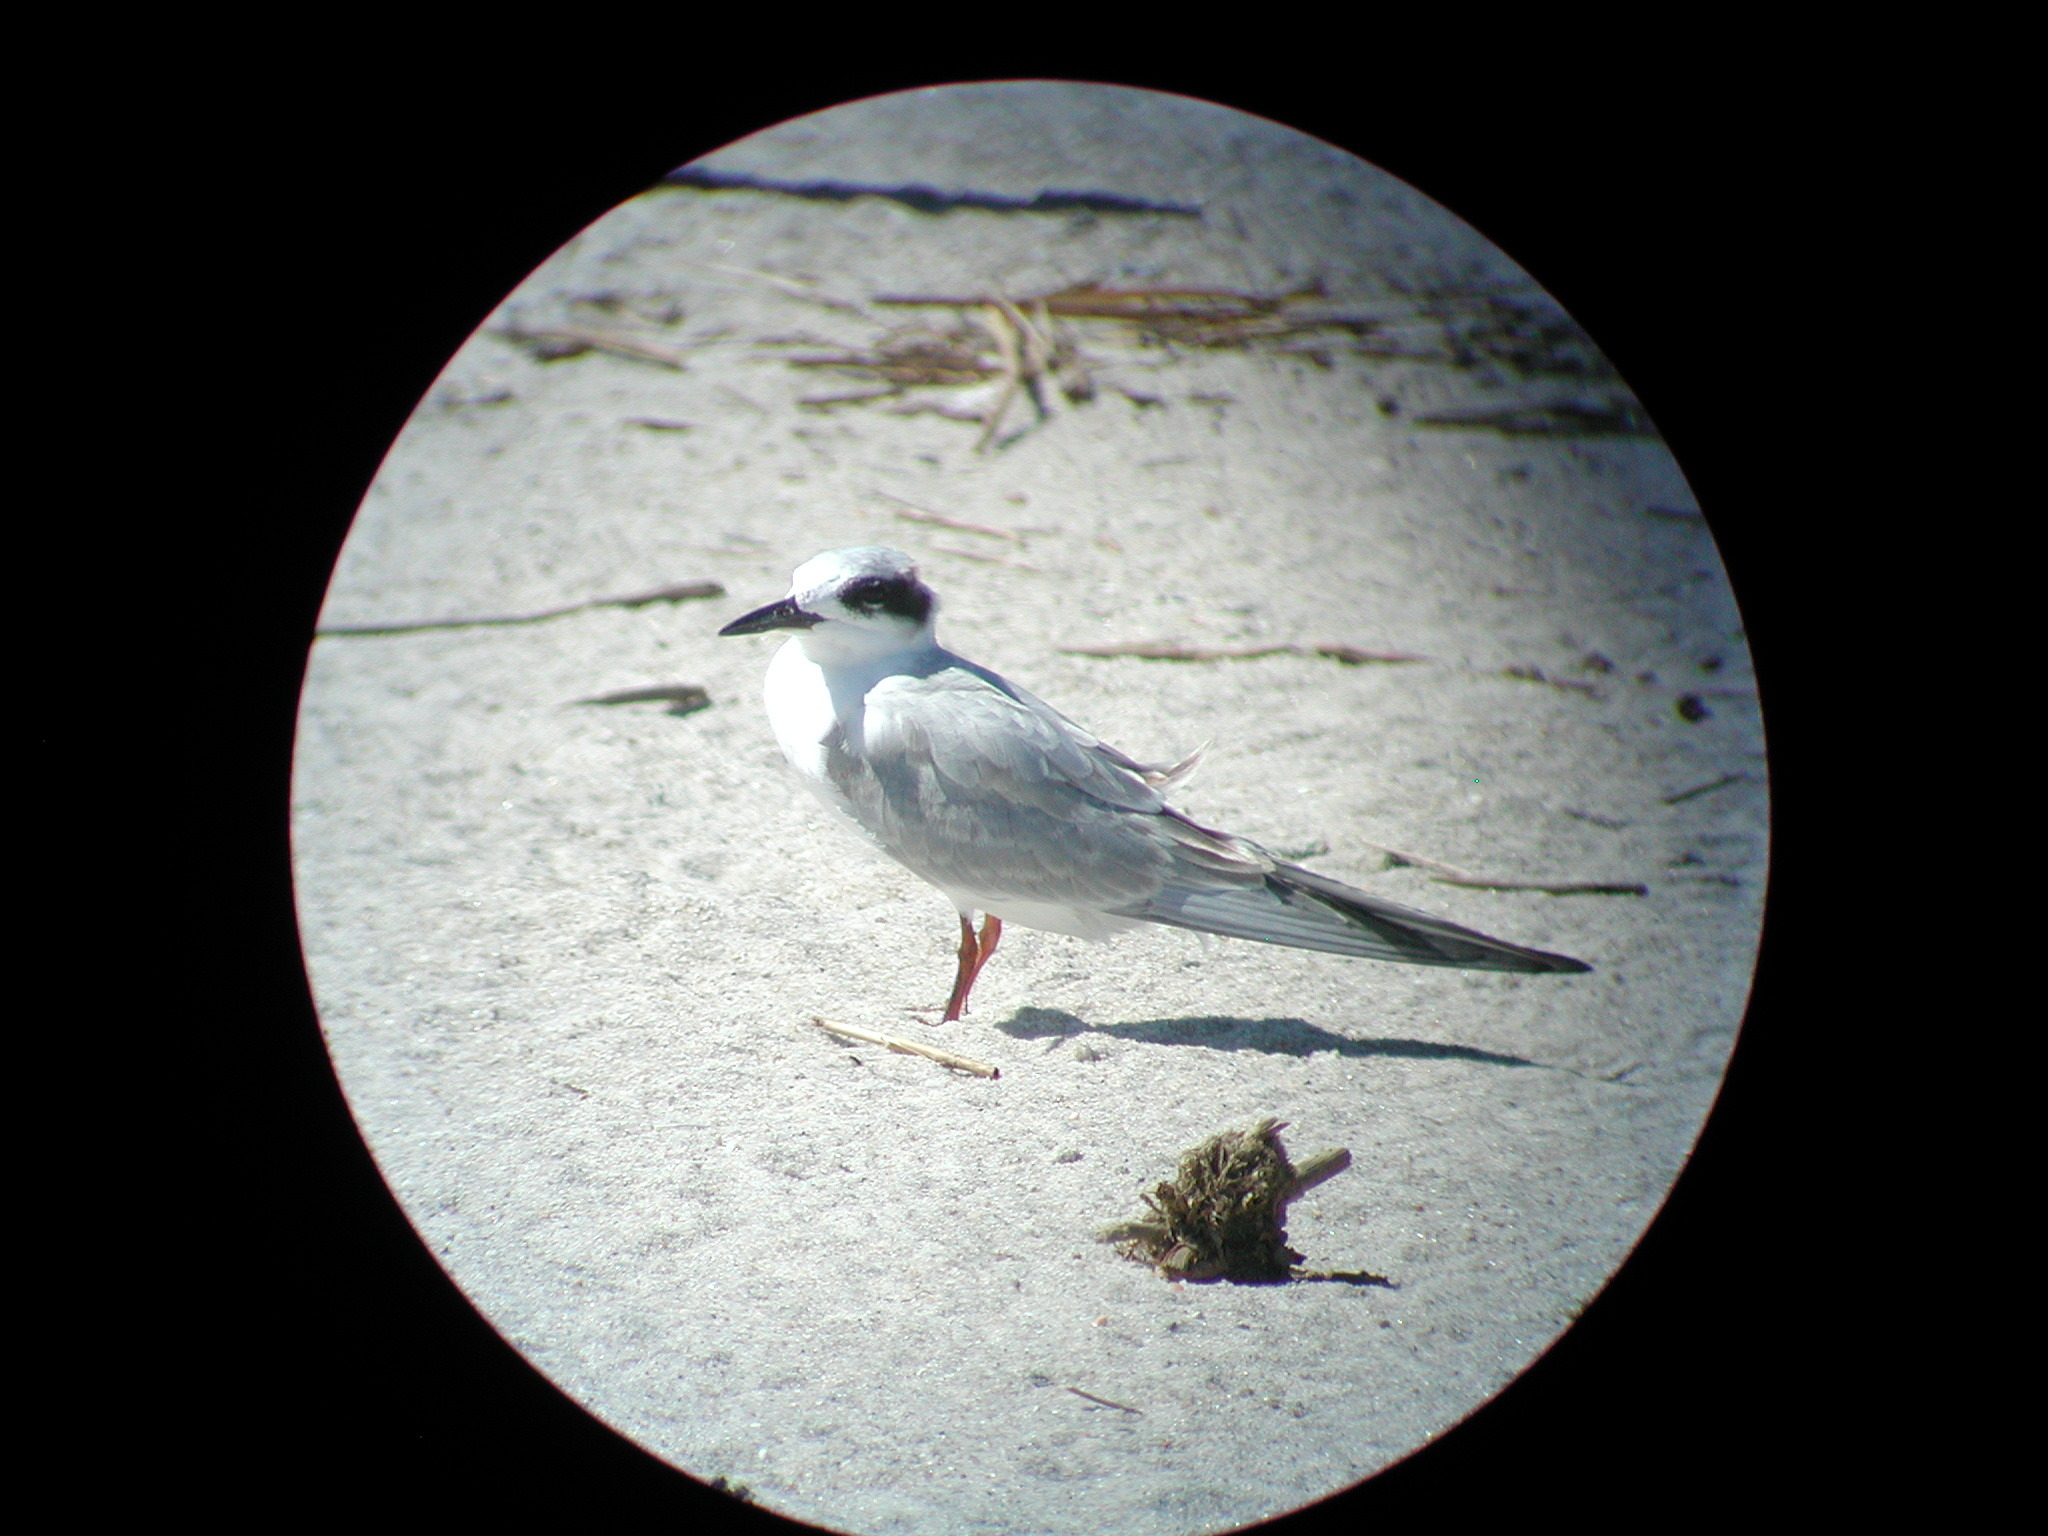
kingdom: Animalia
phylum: Chordata
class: Aves
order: Charadriiformes
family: Laridae
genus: Sterna
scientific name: Sterna forsteri
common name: Forster's tern
